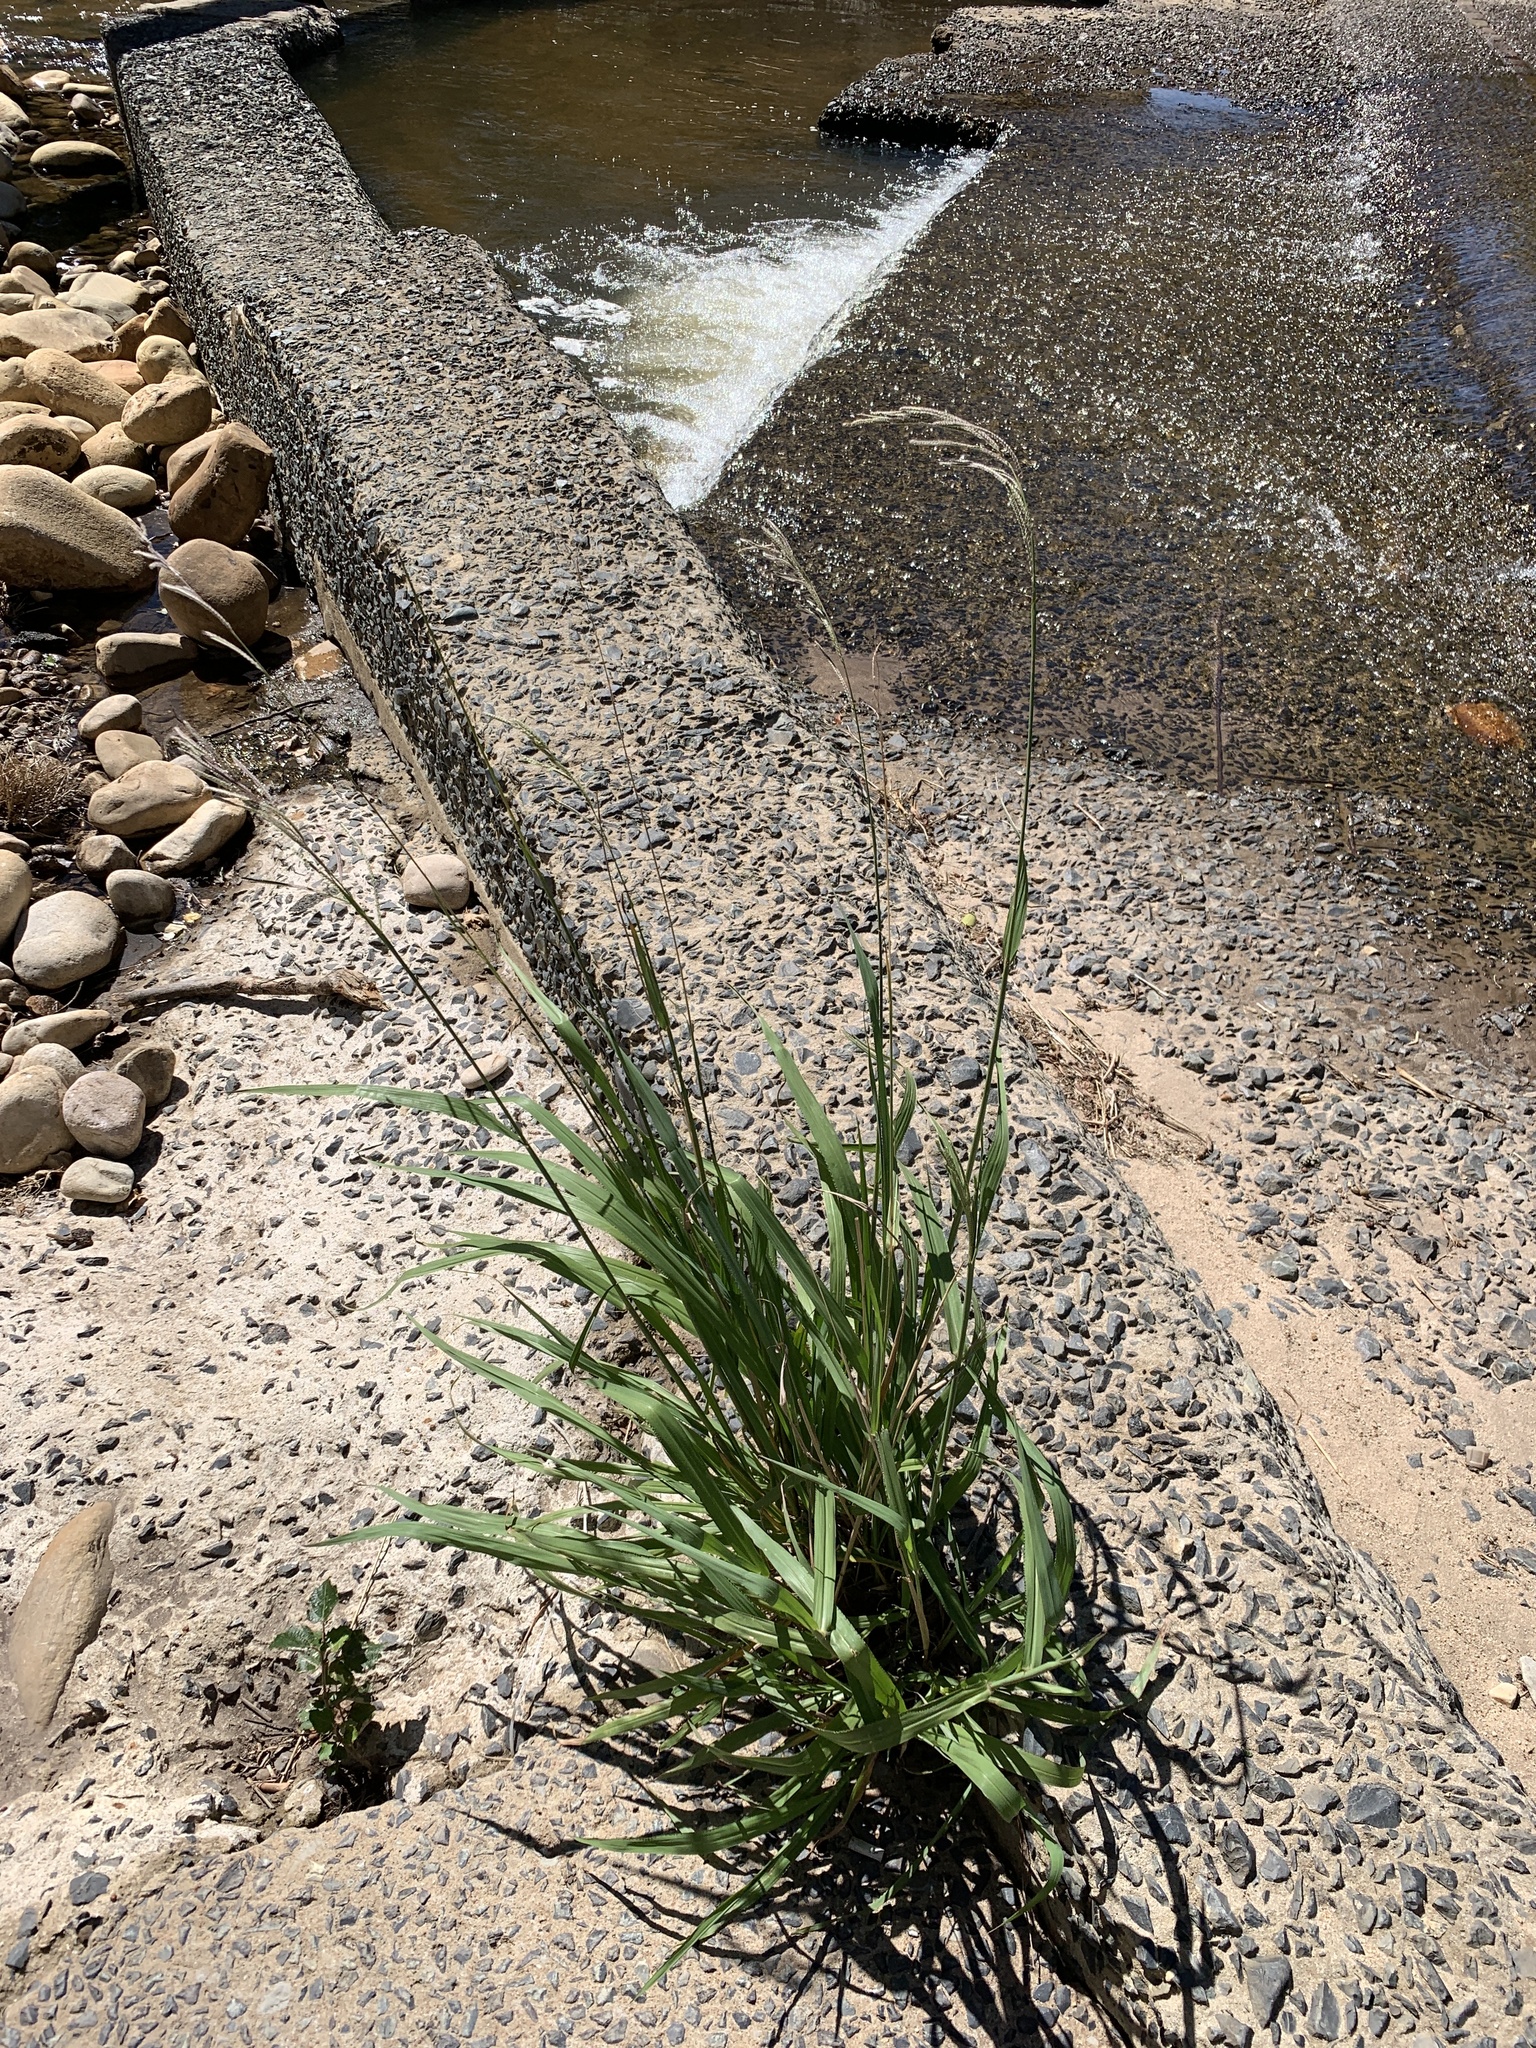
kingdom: Plantae
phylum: Tracheophyta
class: Liliopsida
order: Poales
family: Poaceae
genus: Paspalum
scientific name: Paspalum urvillei
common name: Vasey's grass
